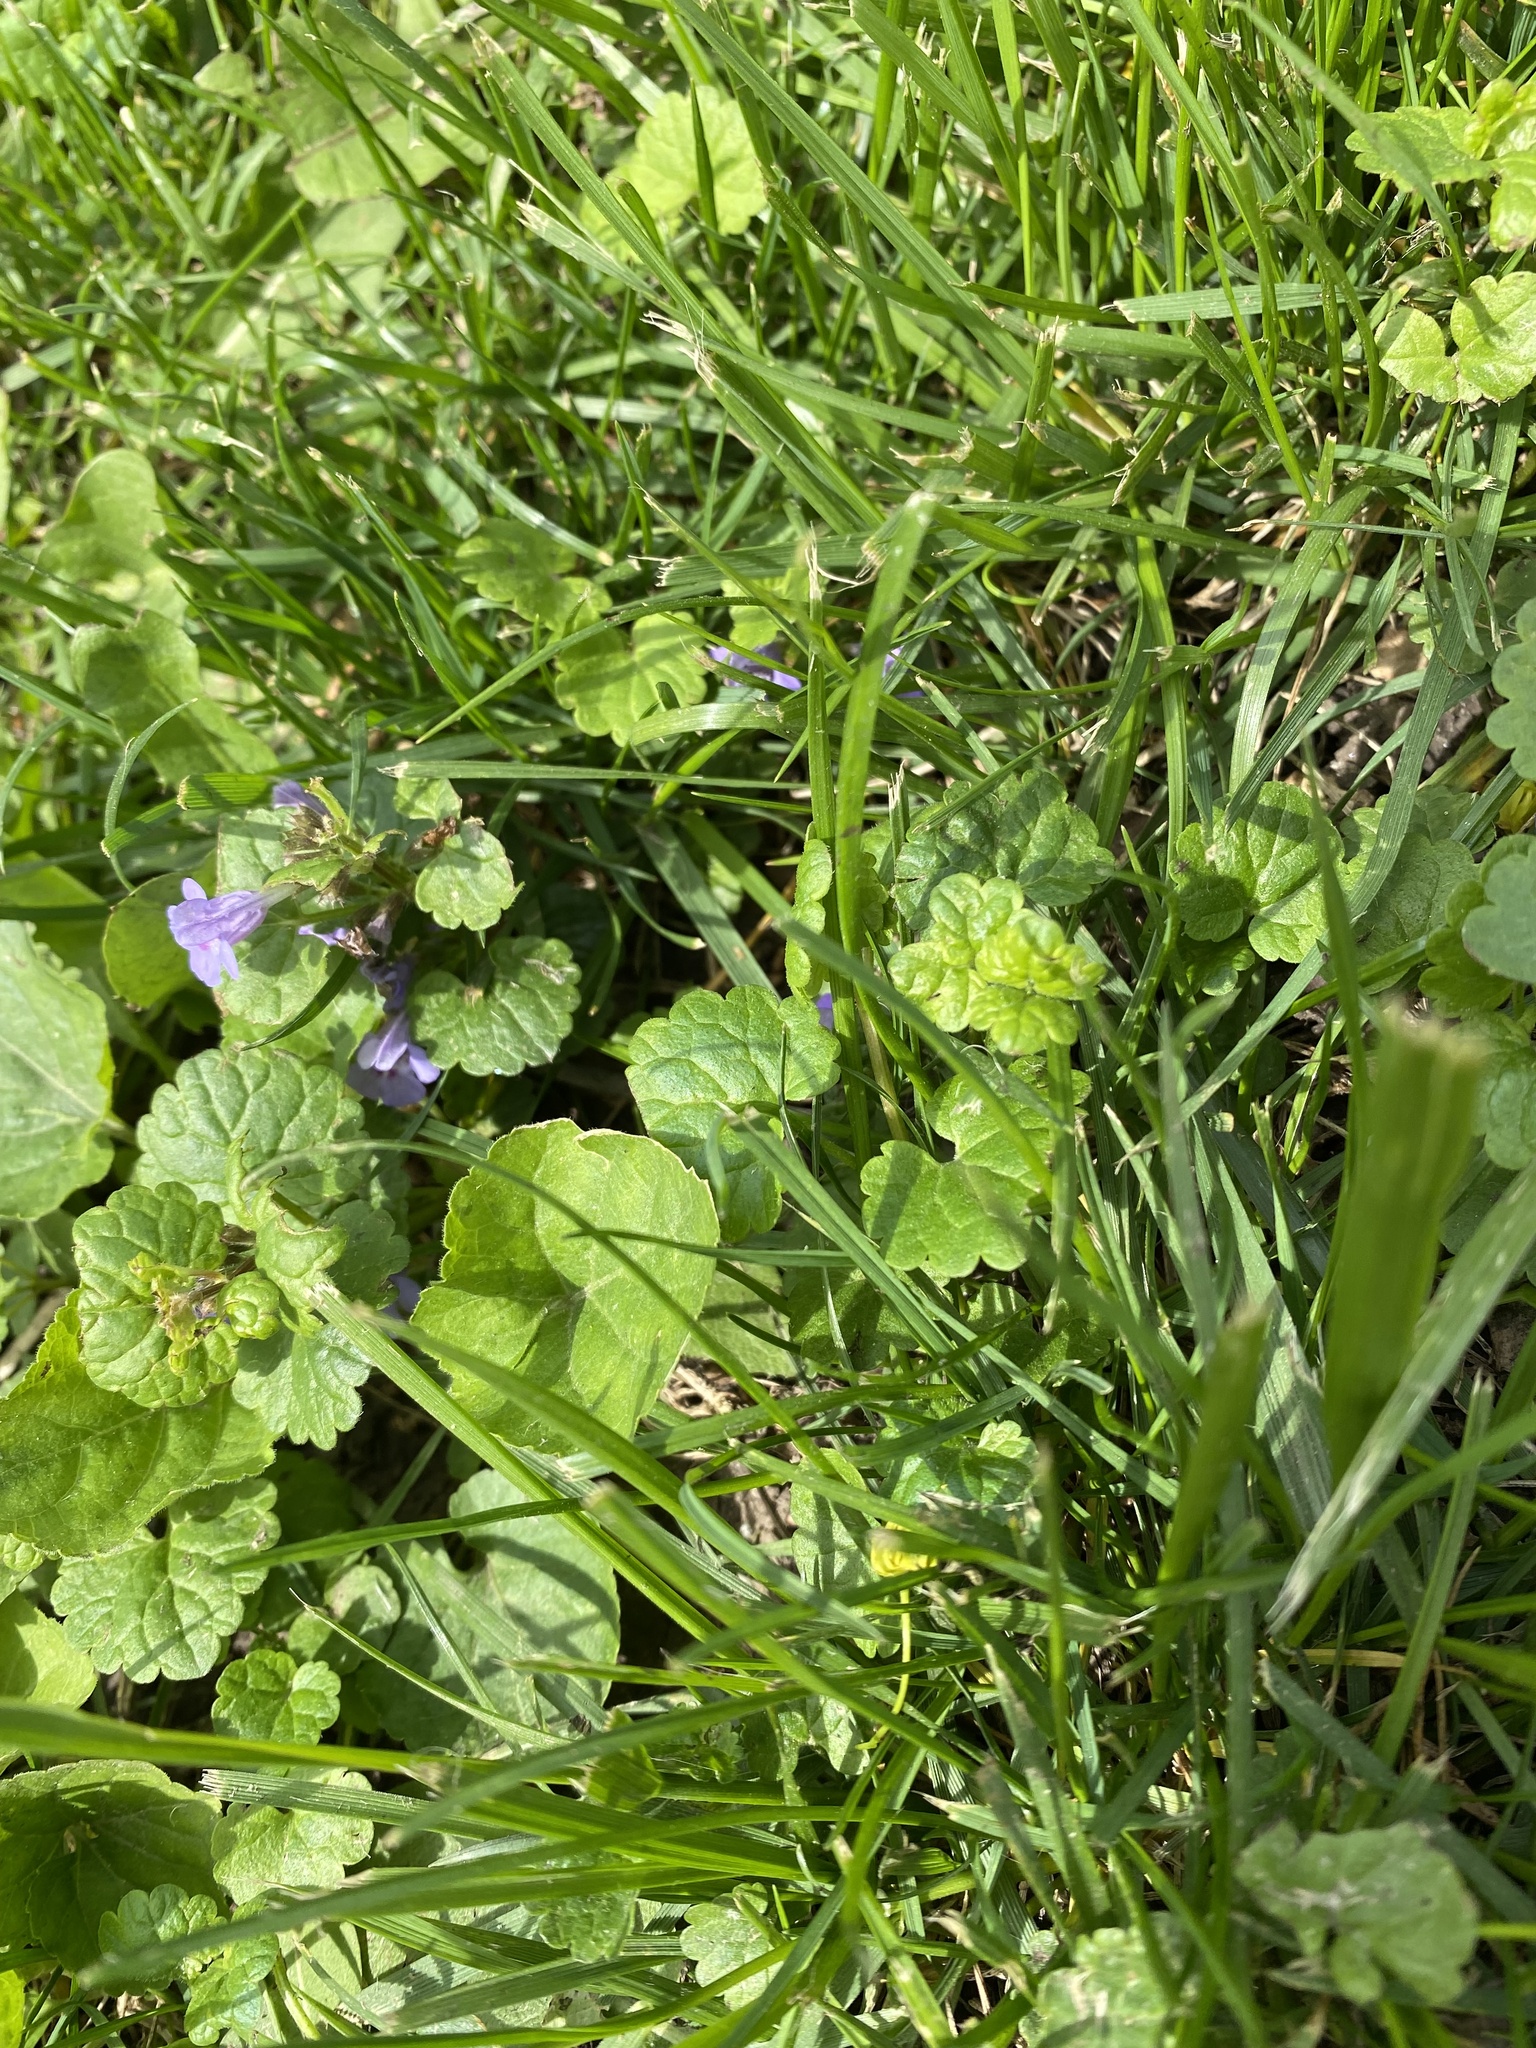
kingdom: Plantae
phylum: Tracheophyta
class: Magnoliopsida
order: Lamiales
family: Lamiaceae
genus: Glechoma
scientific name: Glechoma hederacea
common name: Ground ivy
